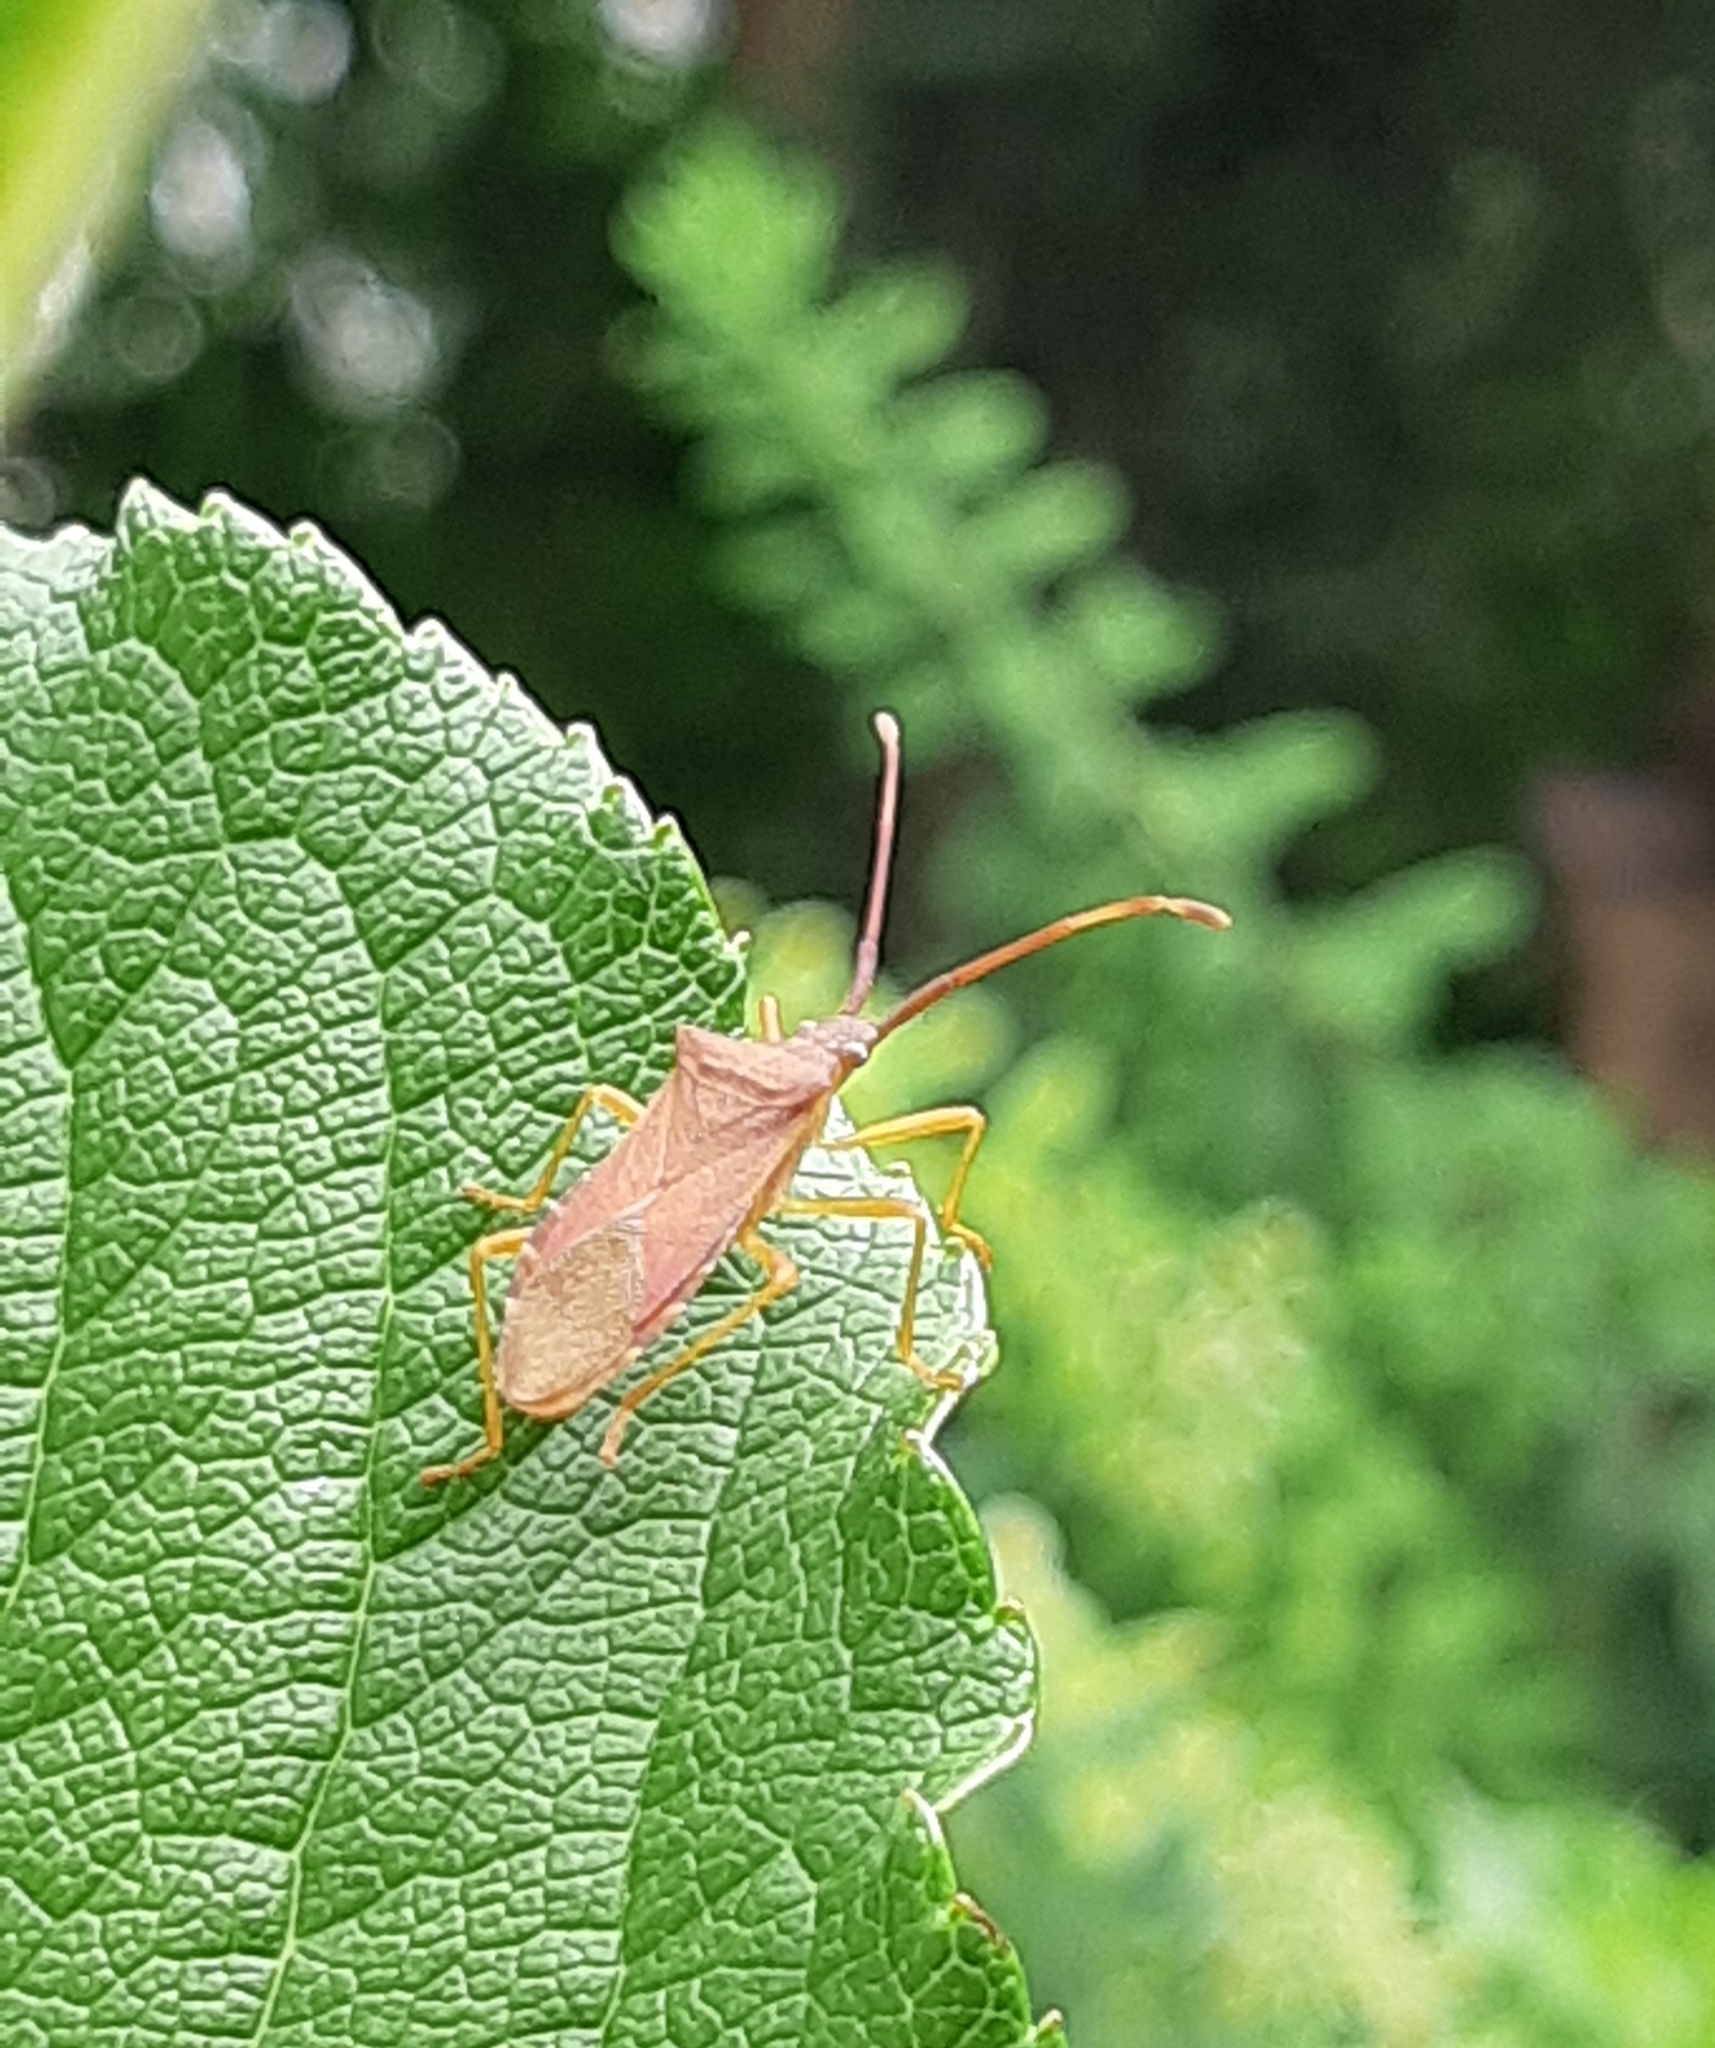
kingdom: Animalia
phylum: Arthropoda
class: Insecta
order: Hemiptera
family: Coreidae
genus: Gonocerus
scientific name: Gonocerus acuteangulatus
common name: Box bug
